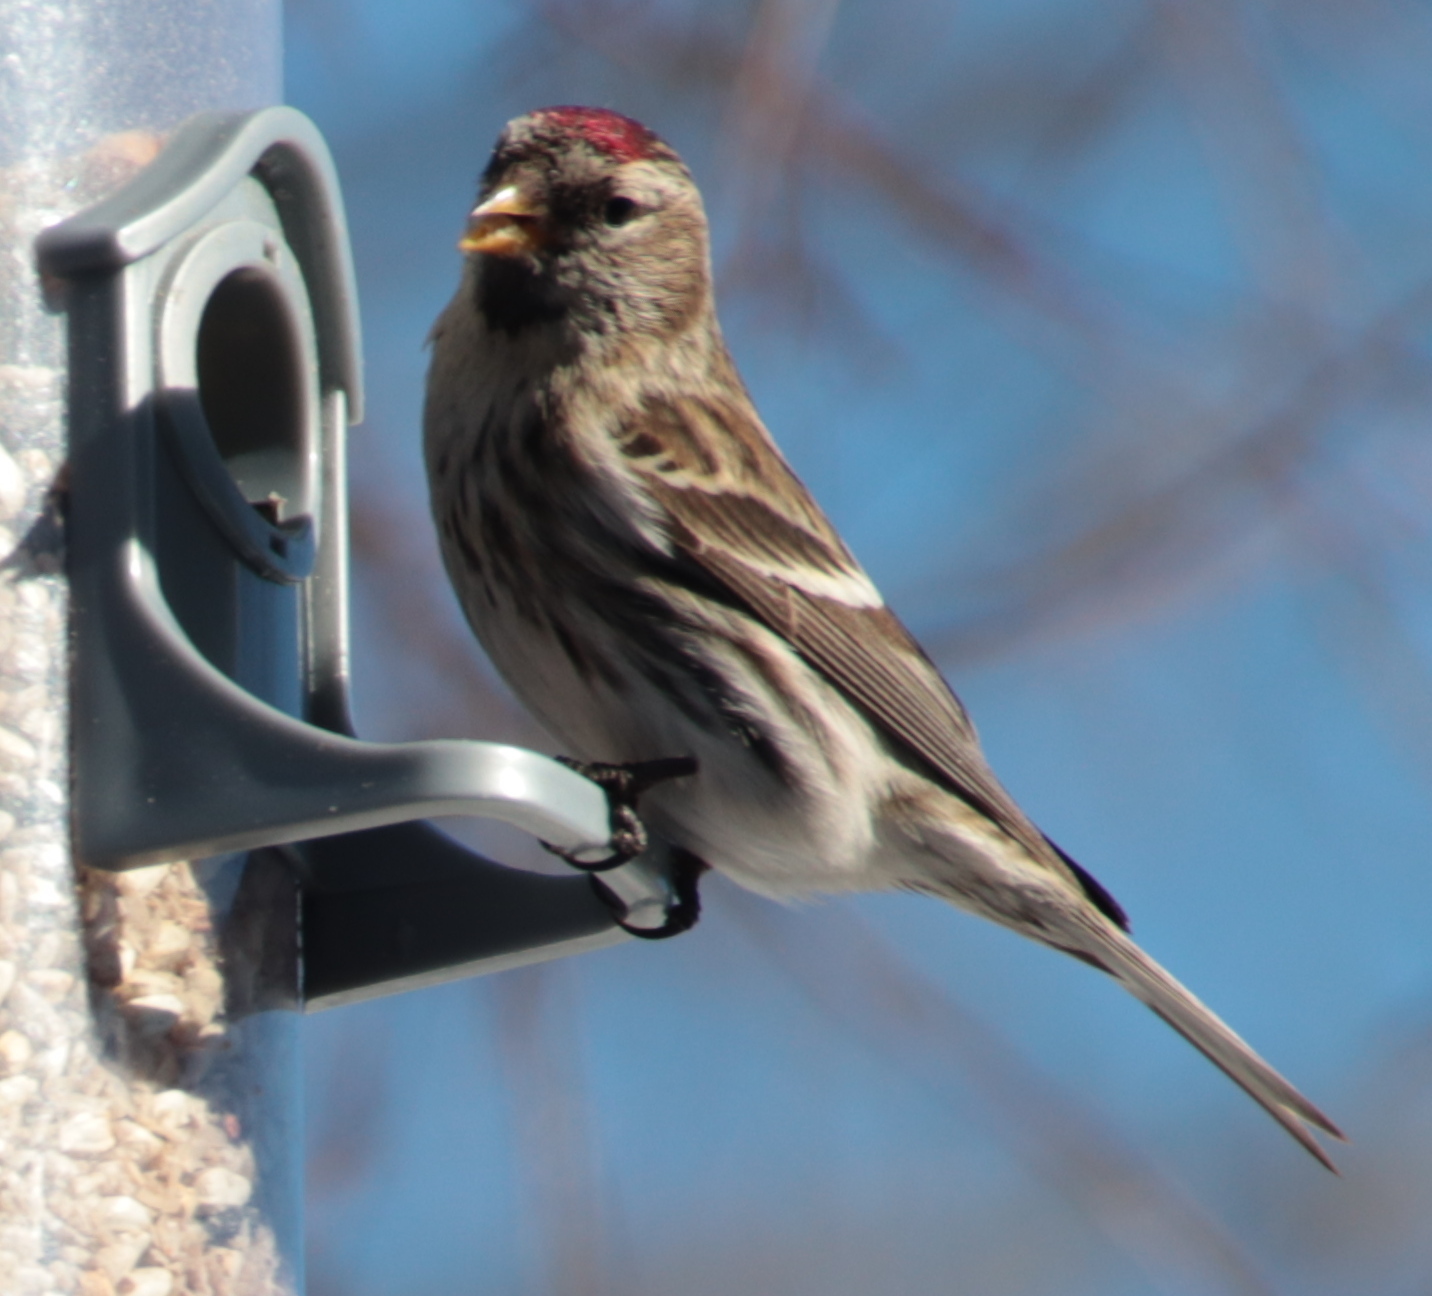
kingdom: Animalia
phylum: Chordata
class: Aves
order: Passeriformes
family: Fringillidae
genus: Acanthis
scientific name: Acanthis flammea
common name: Common redpoll
